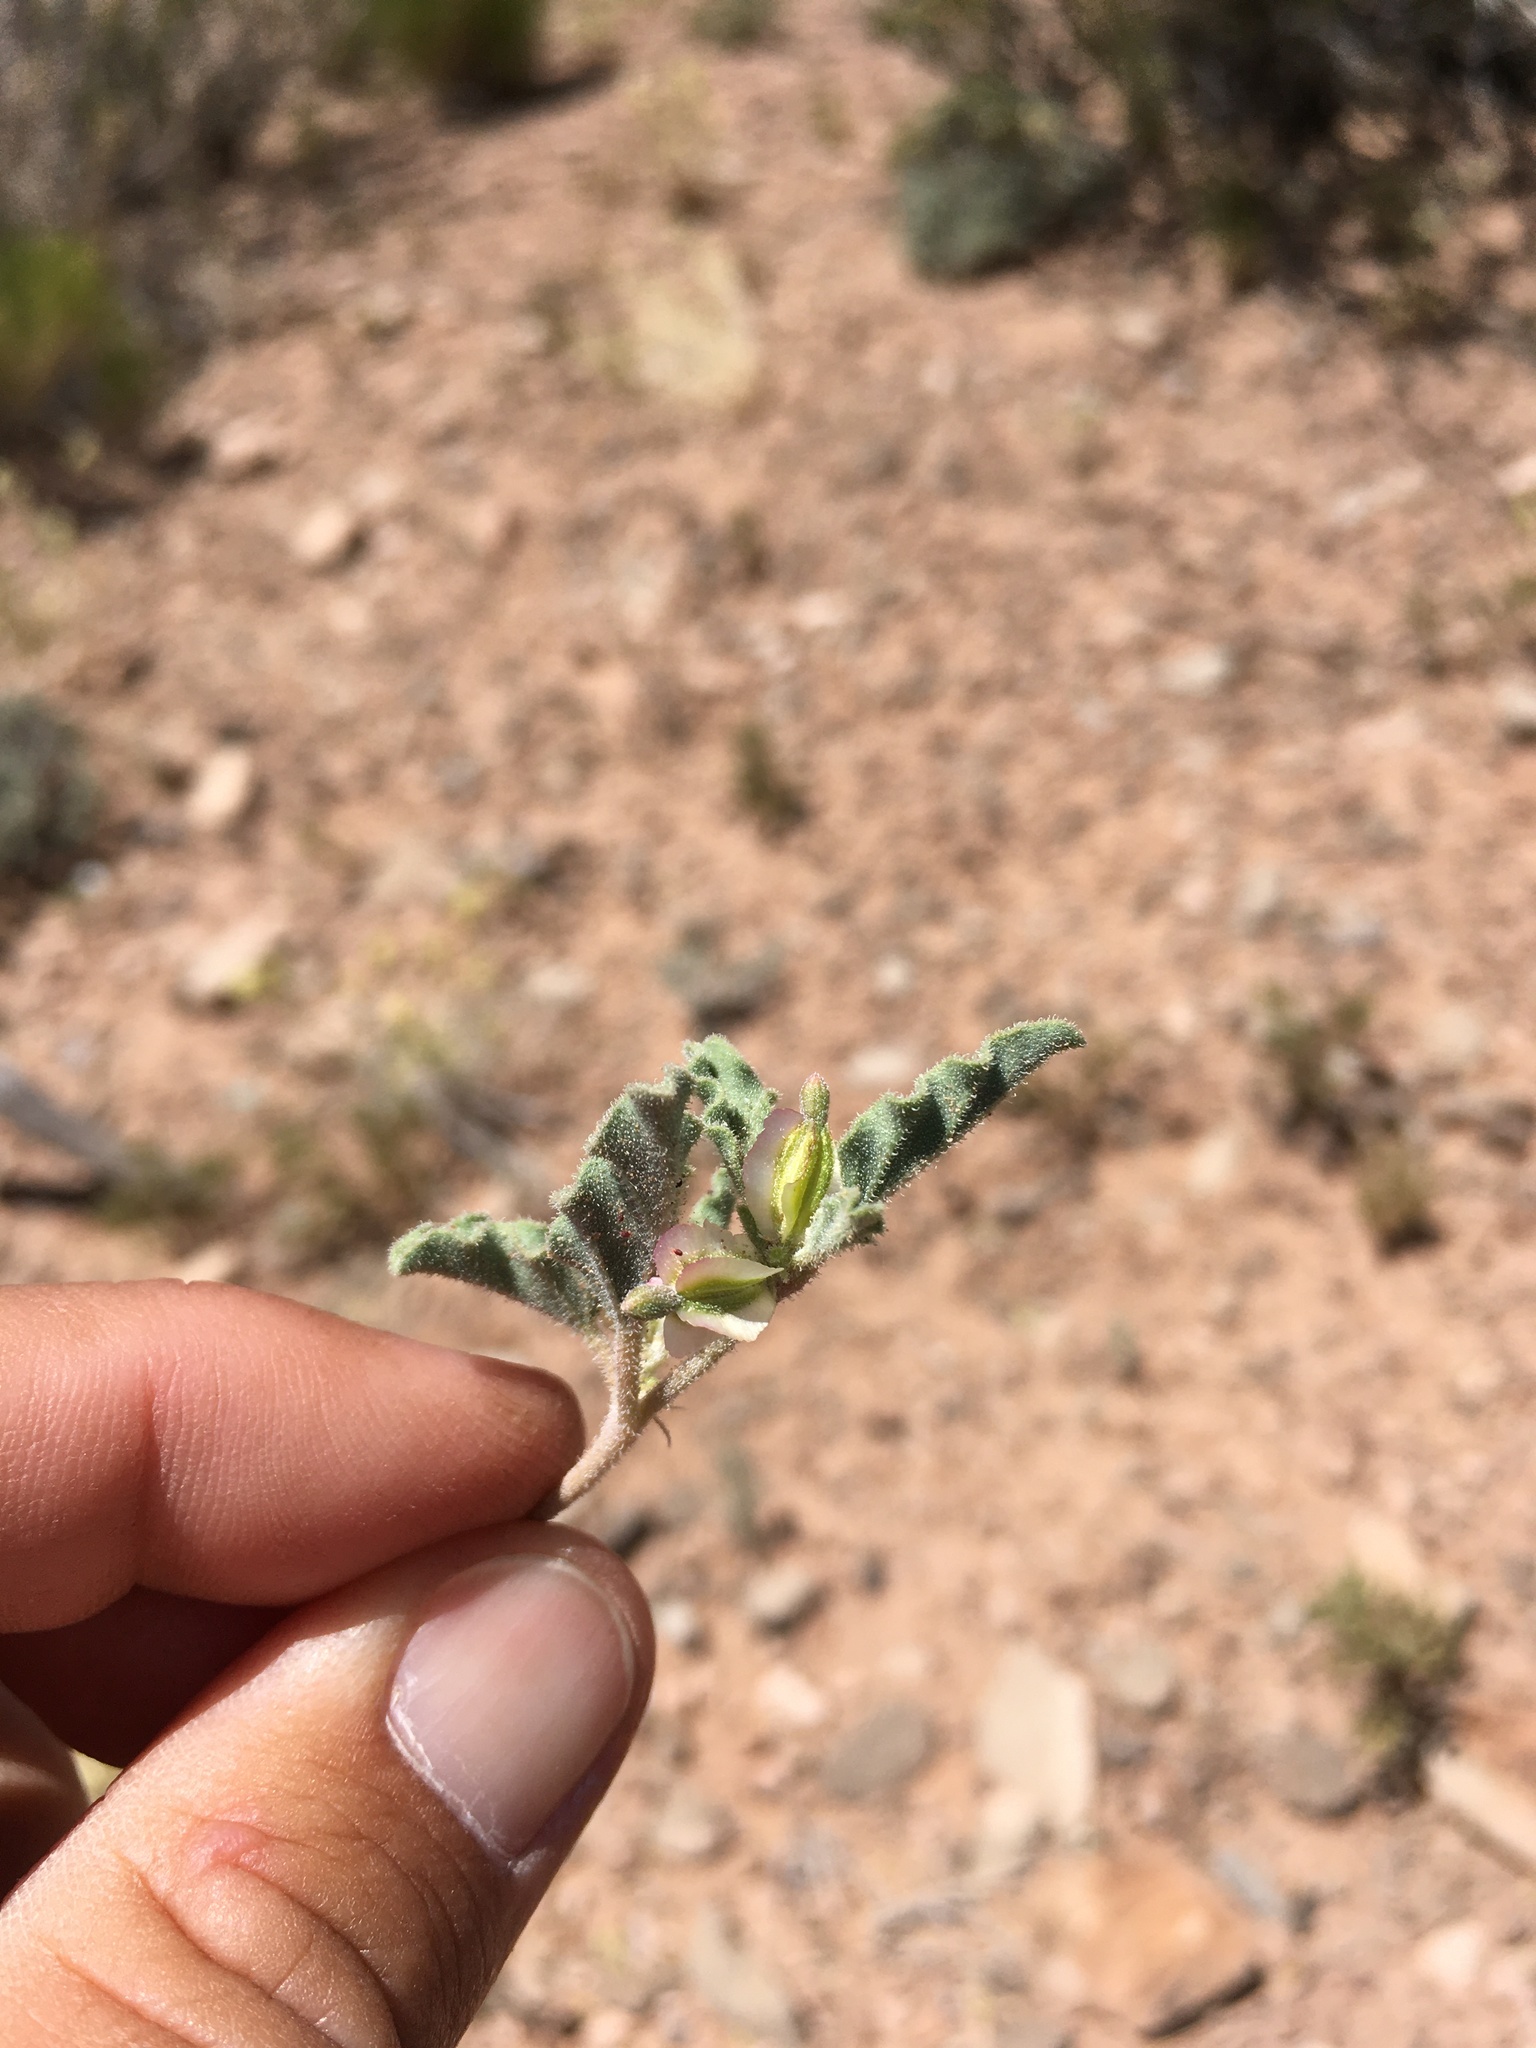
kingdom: Plantae
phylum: Tracheophyta
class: Magnoliopsida
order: Caryophyllales
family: Nyctaginaceae
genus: Acleisanthes
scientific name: Acleisanthes diffusa
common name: Spreading moonpod
